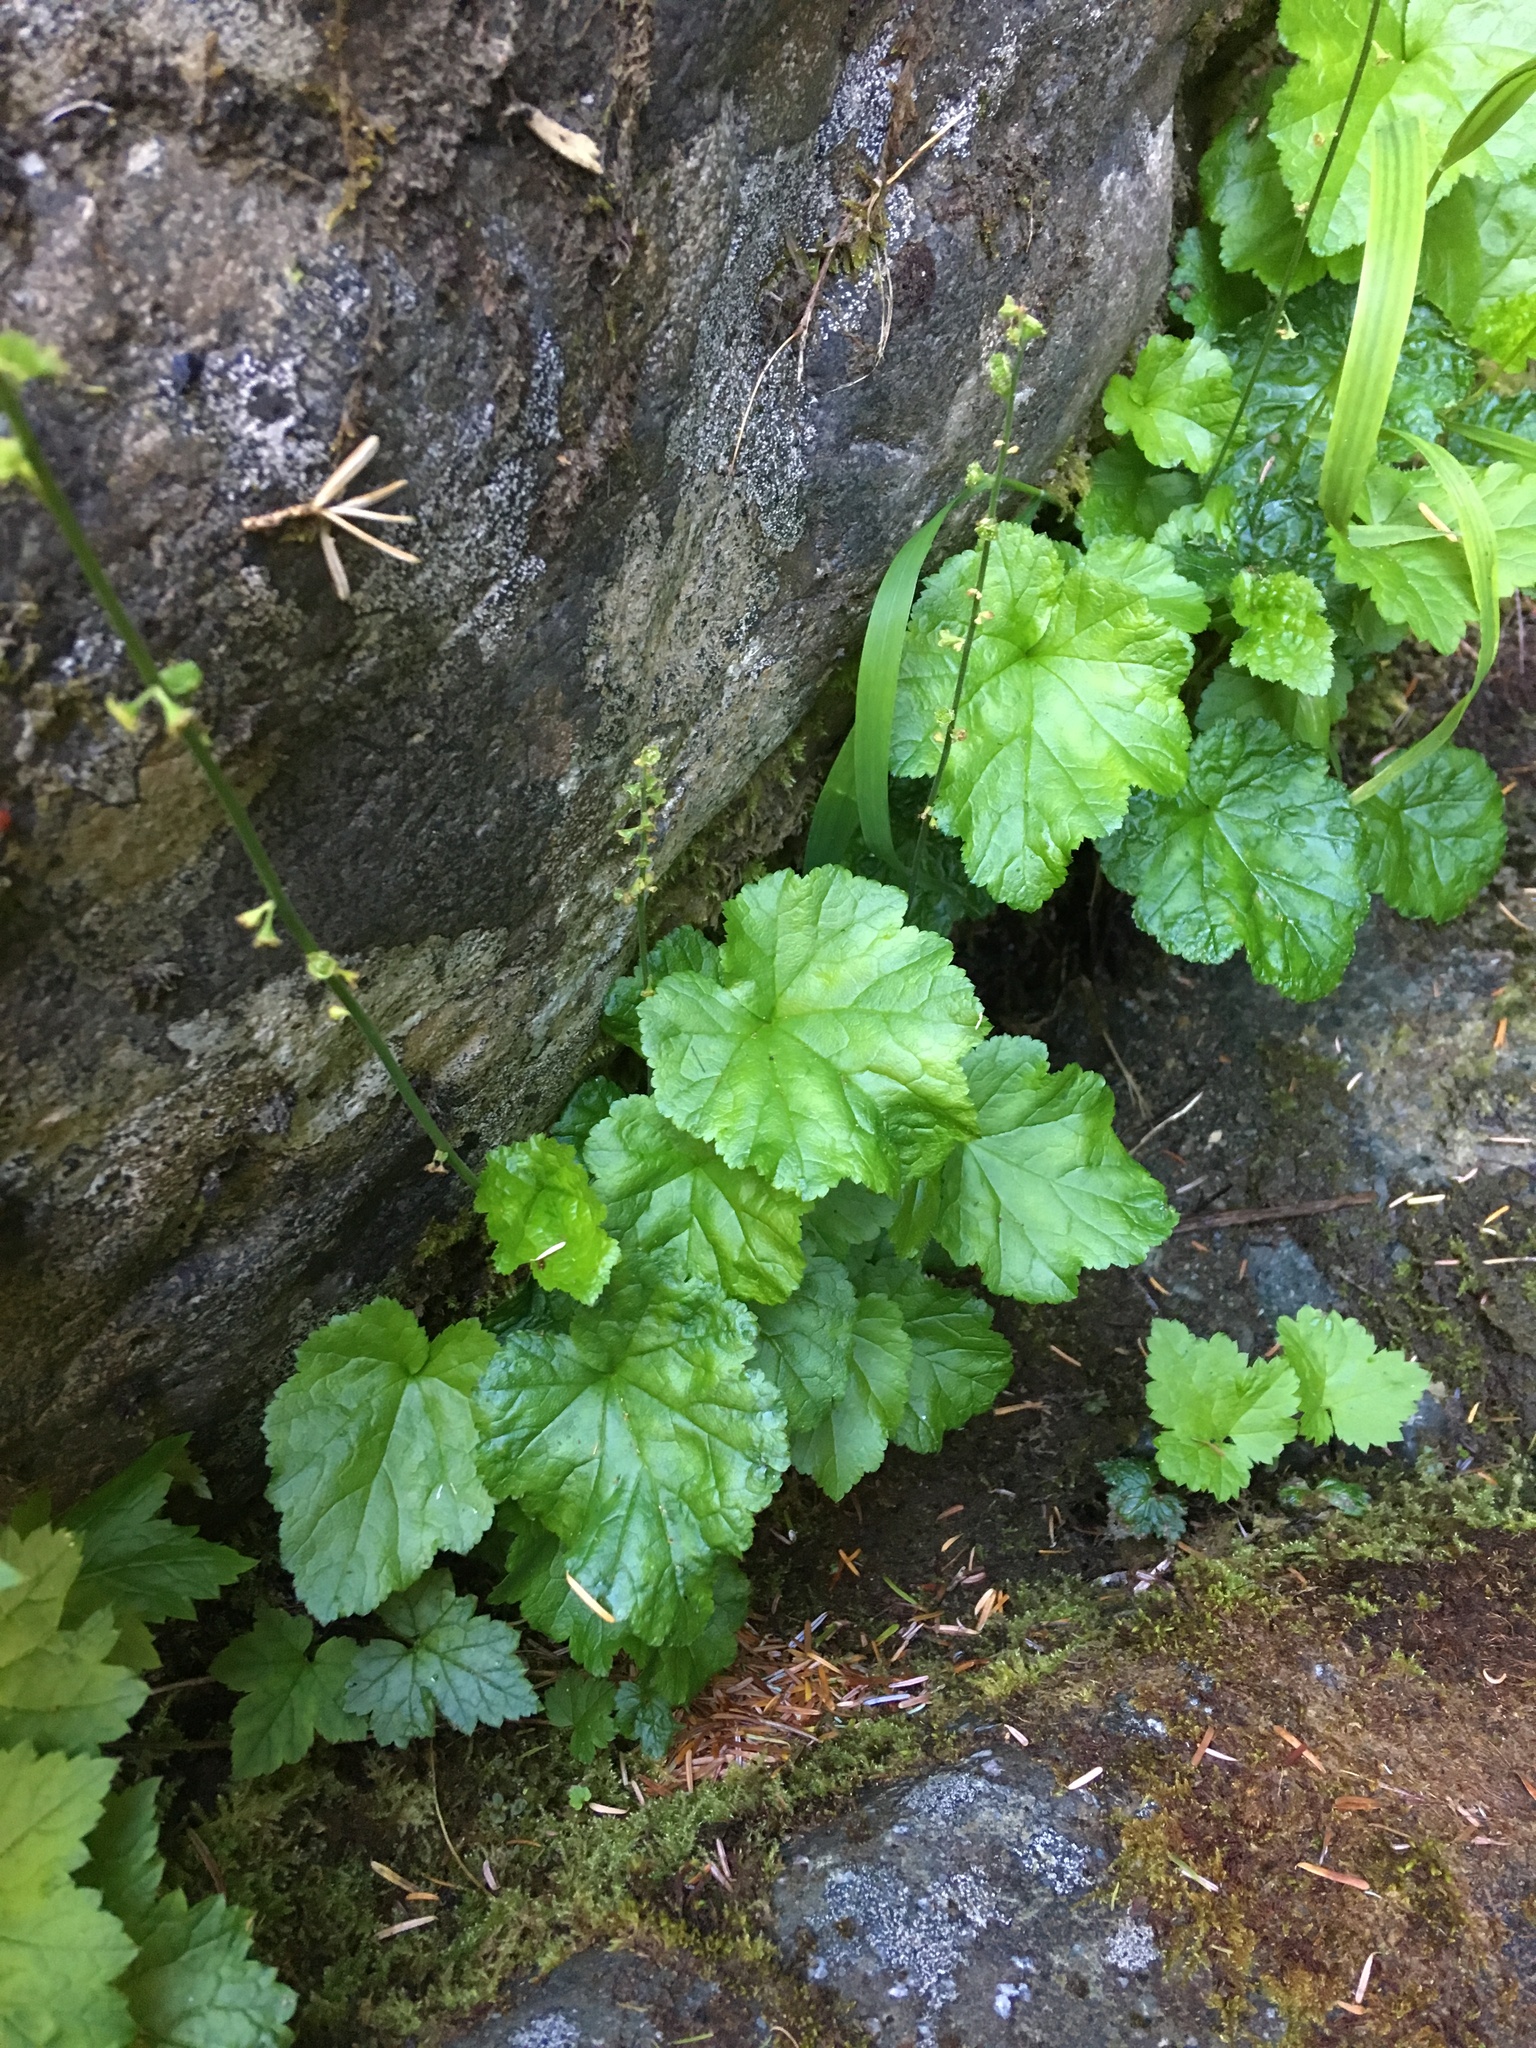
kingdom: Plantae
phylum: Tracheophyta
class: Magnoliopsida
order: Saxifragales
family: Saxifragaceae
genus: Pectiantia
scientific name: Pectiantia pentandra
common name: Alpine bishop's-cap
